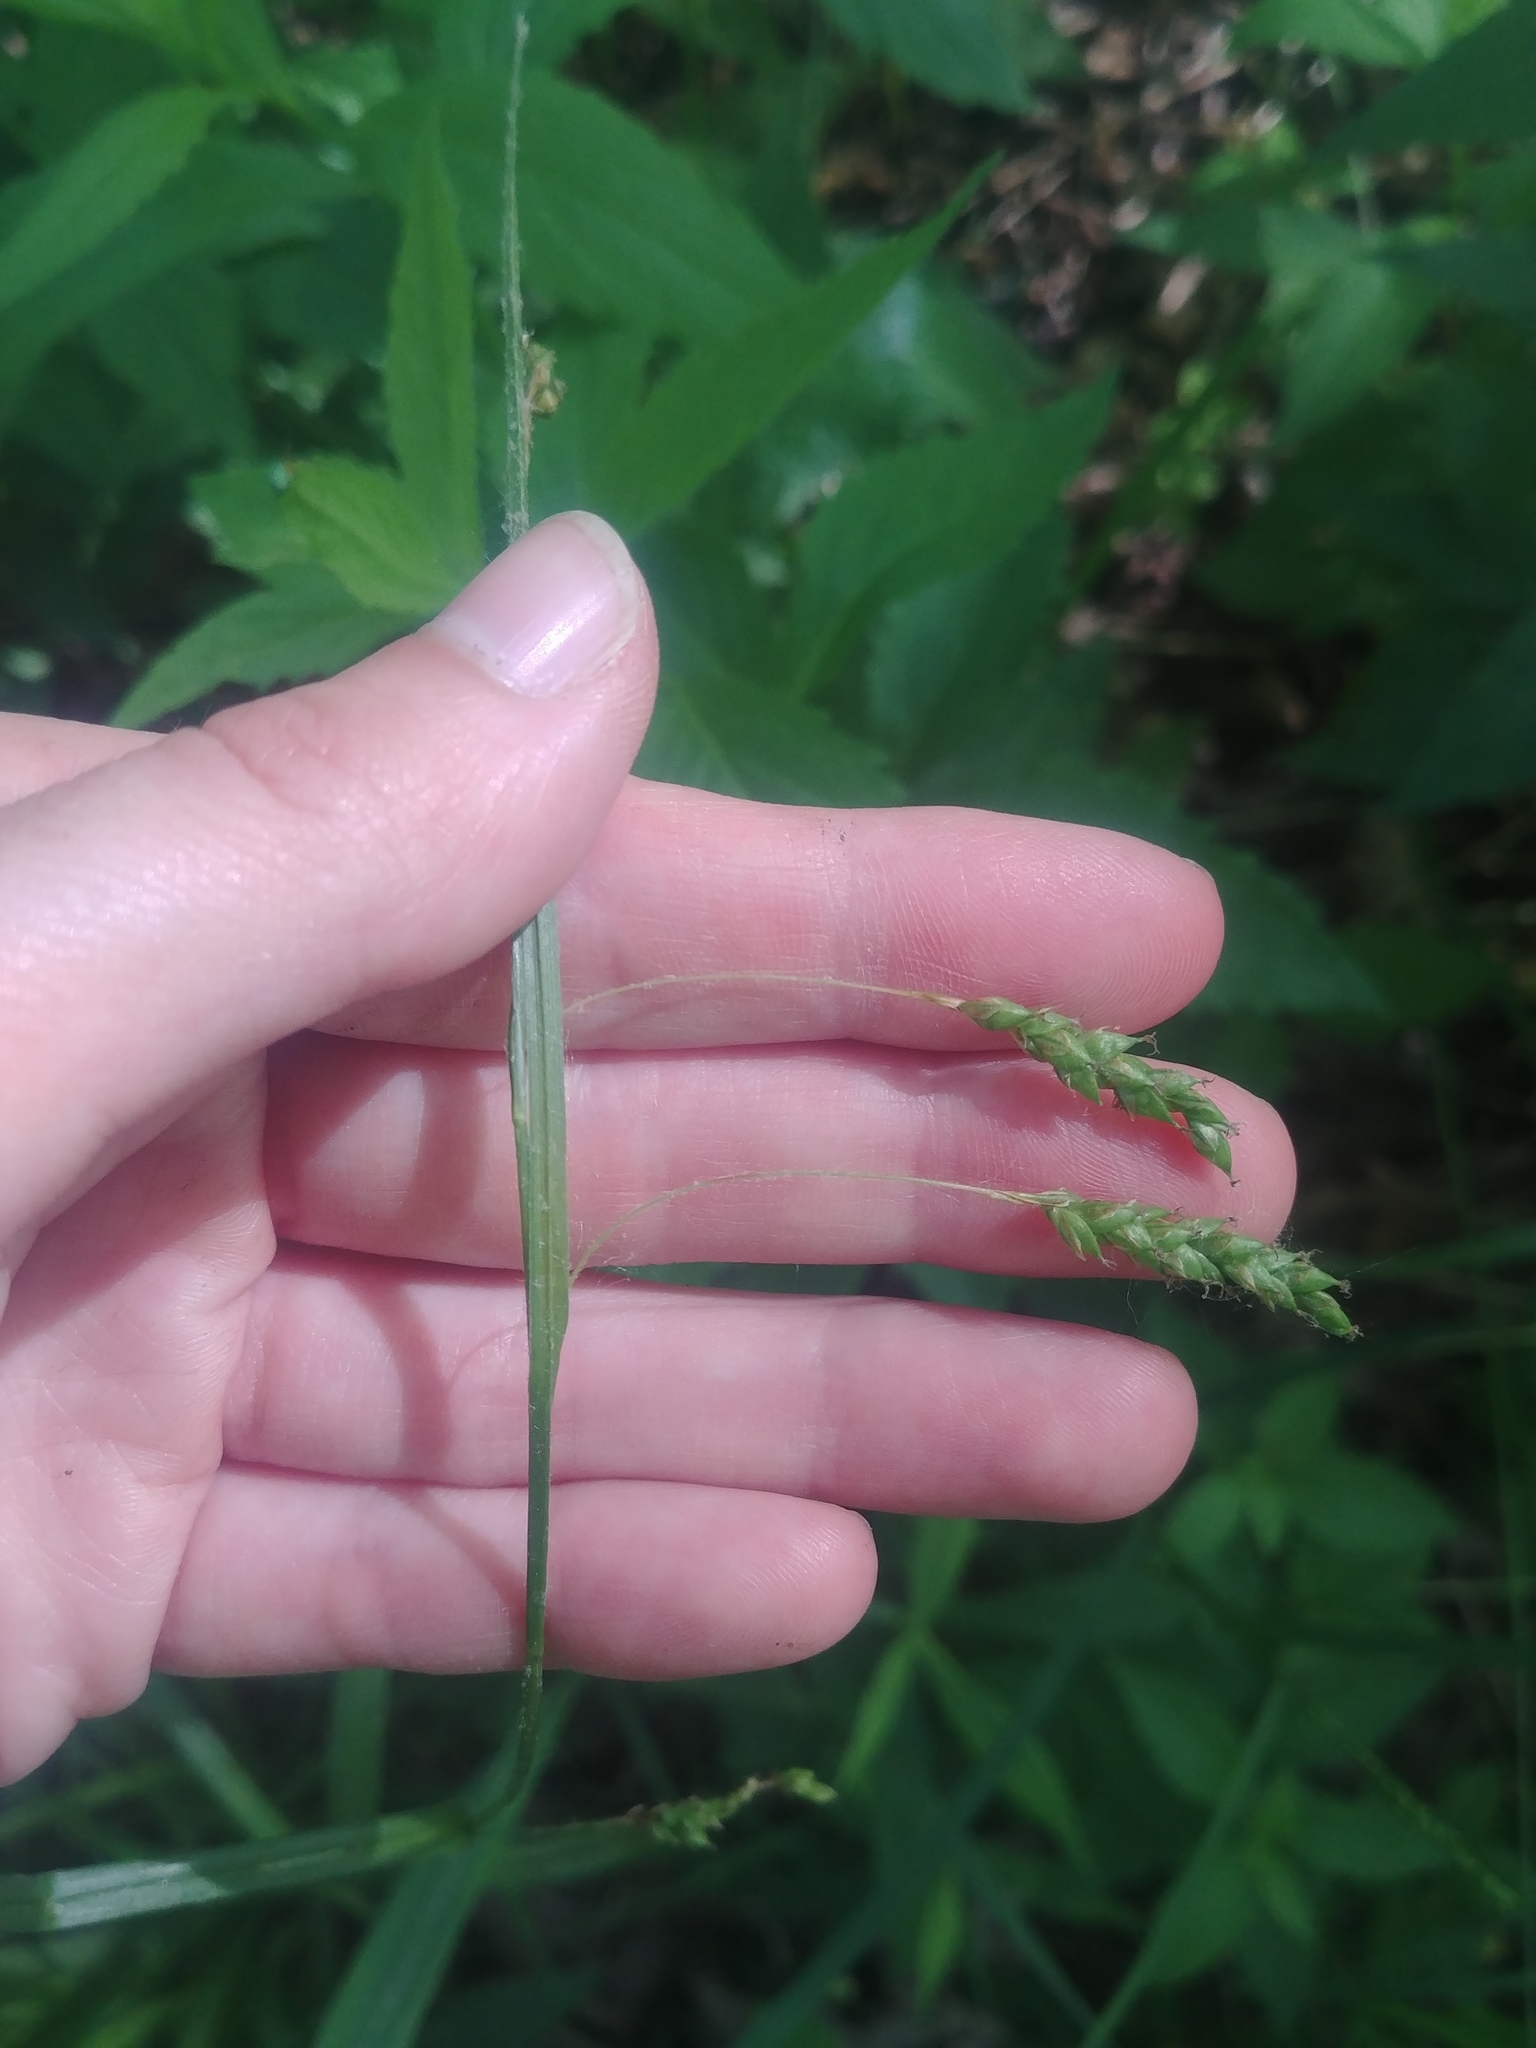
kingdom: Plantae
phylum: Tracheophyta
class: Liliopsida
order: Poales
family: Cyperaceae
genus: Carex
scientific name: Carex formosa
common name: Awnless graceful sedge
